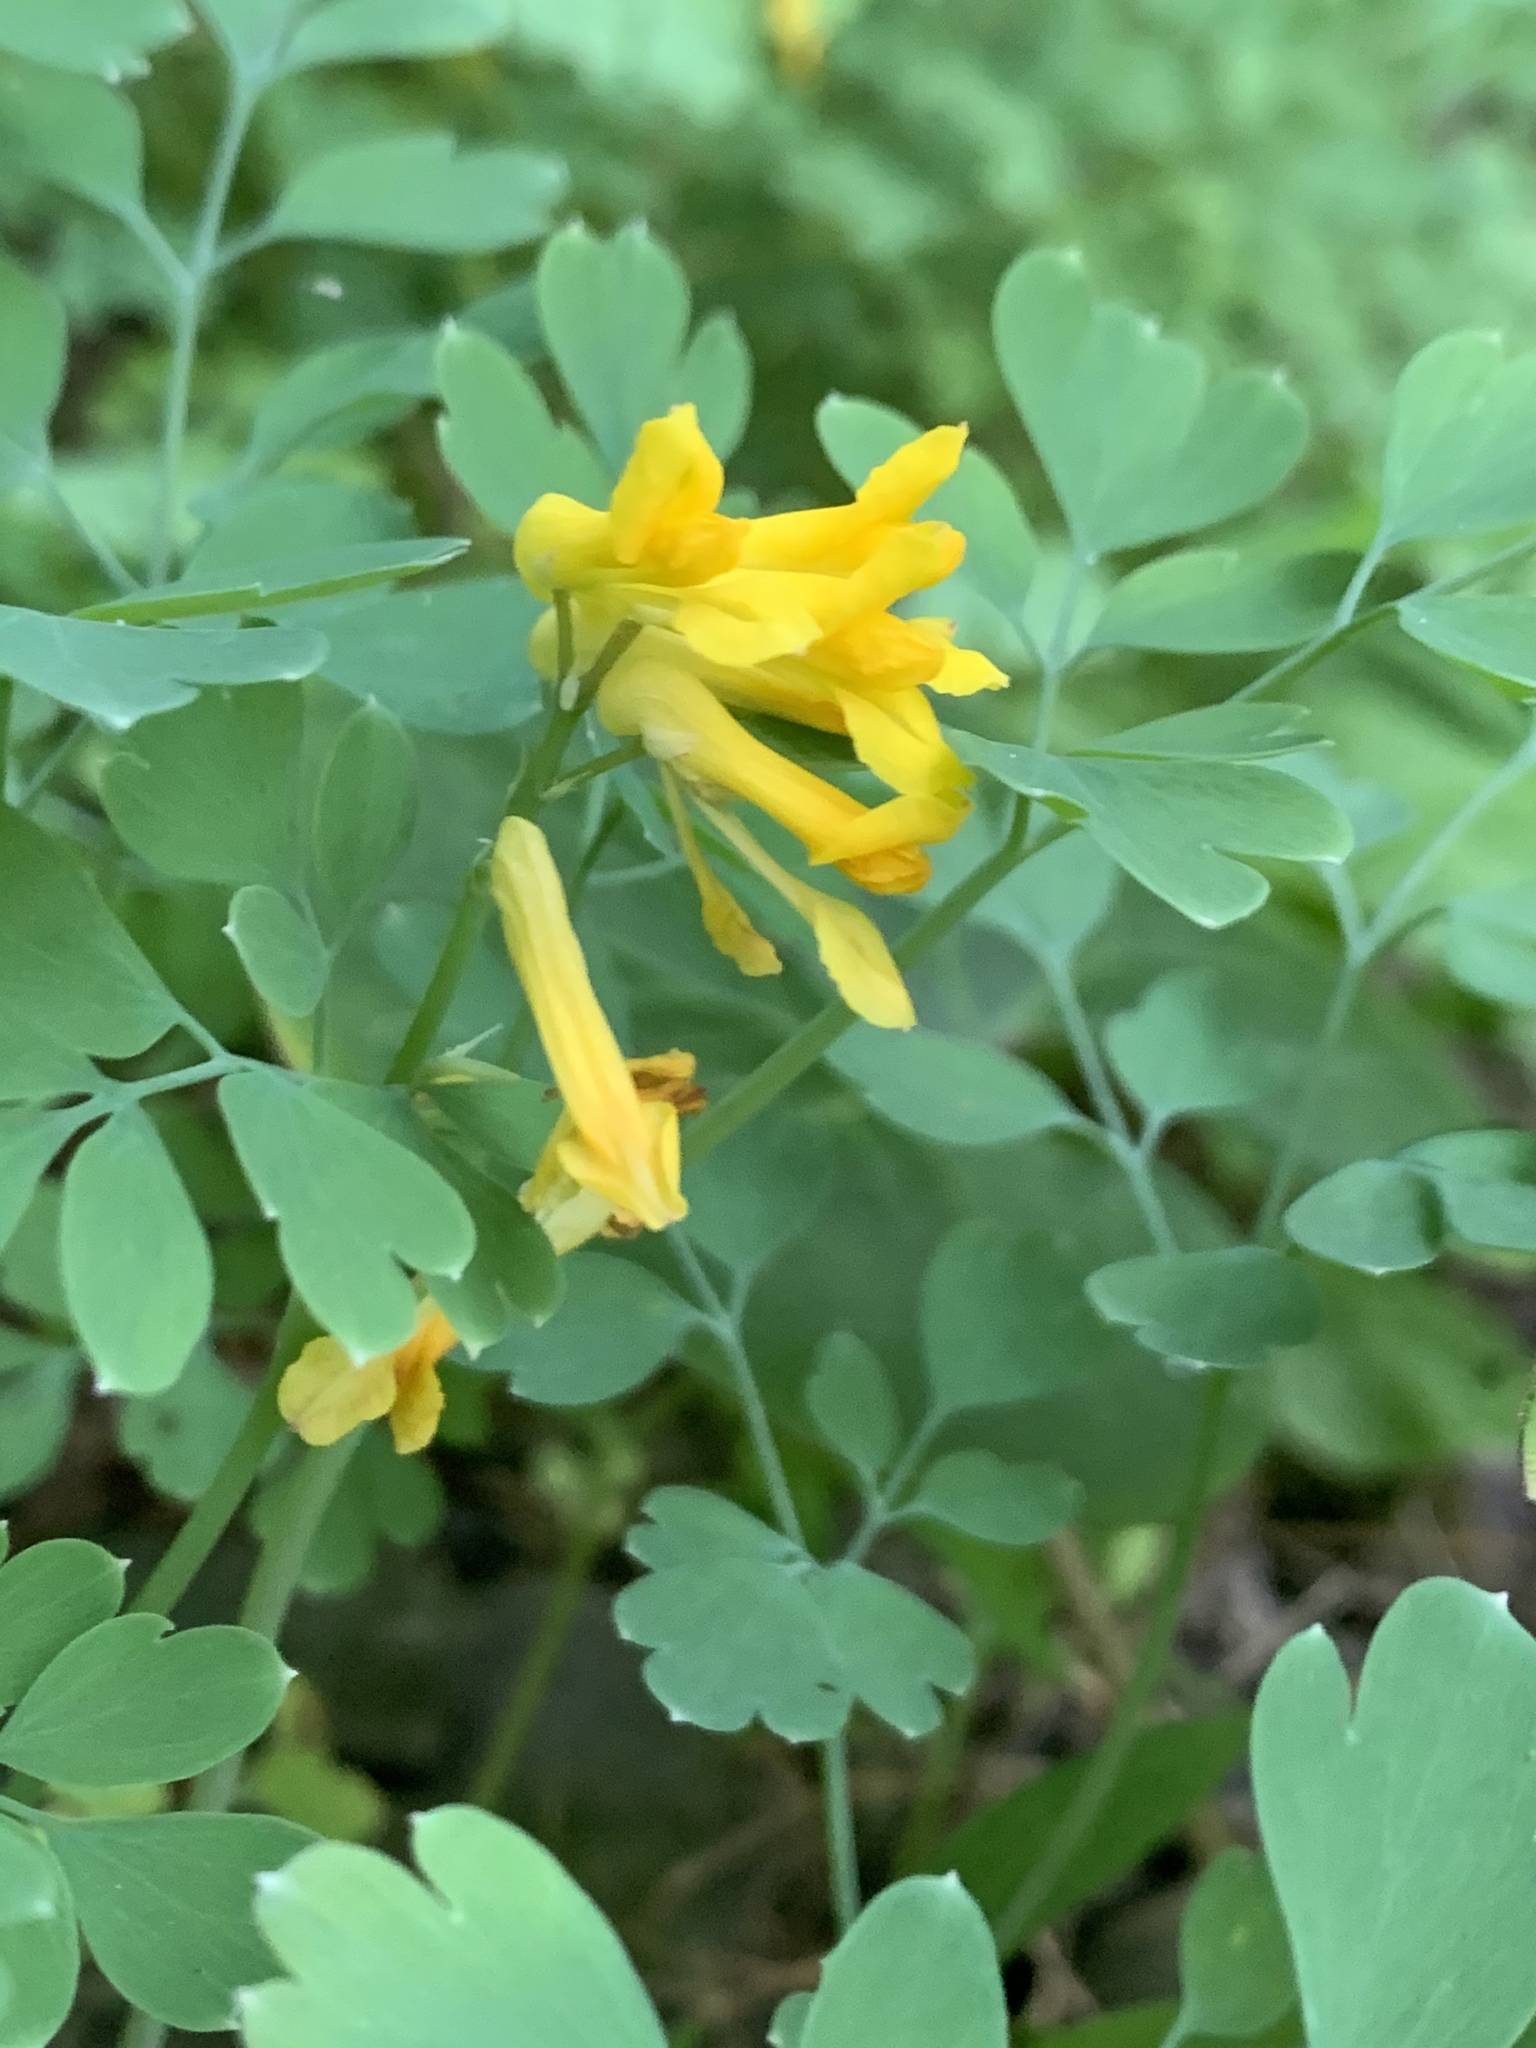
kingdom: Plantae
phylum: Tracheophyta
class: Magnoliopsida
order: Ranunculales
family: Papaveraceae
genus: Pseudofumaria
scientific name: Pseudofumaria lutea
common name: Yellow corydalis
